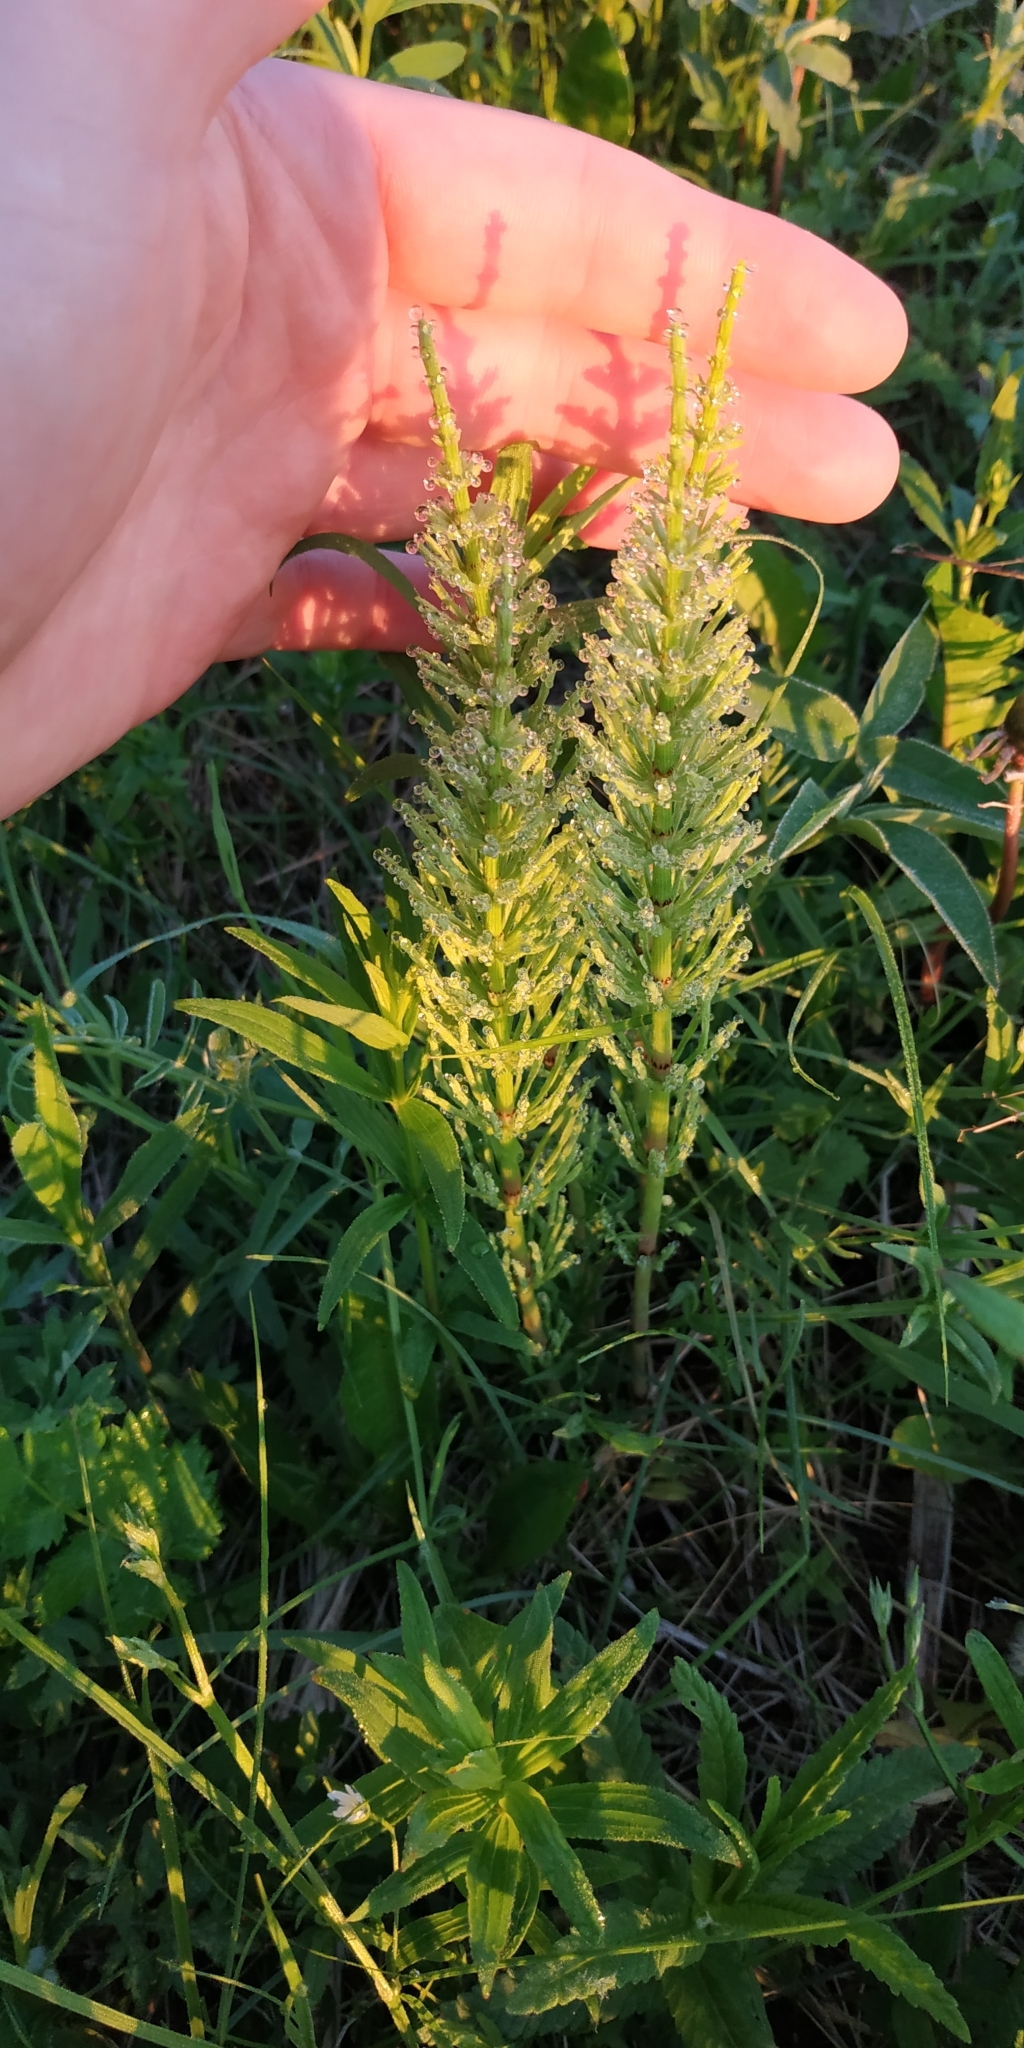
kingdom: Plantae
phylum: Tracheophyta
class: Polypodiopsida
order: Equisetales
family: Equisetaceae
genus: Equisetum
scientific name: Equisetum arvense
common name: Field horsetail
